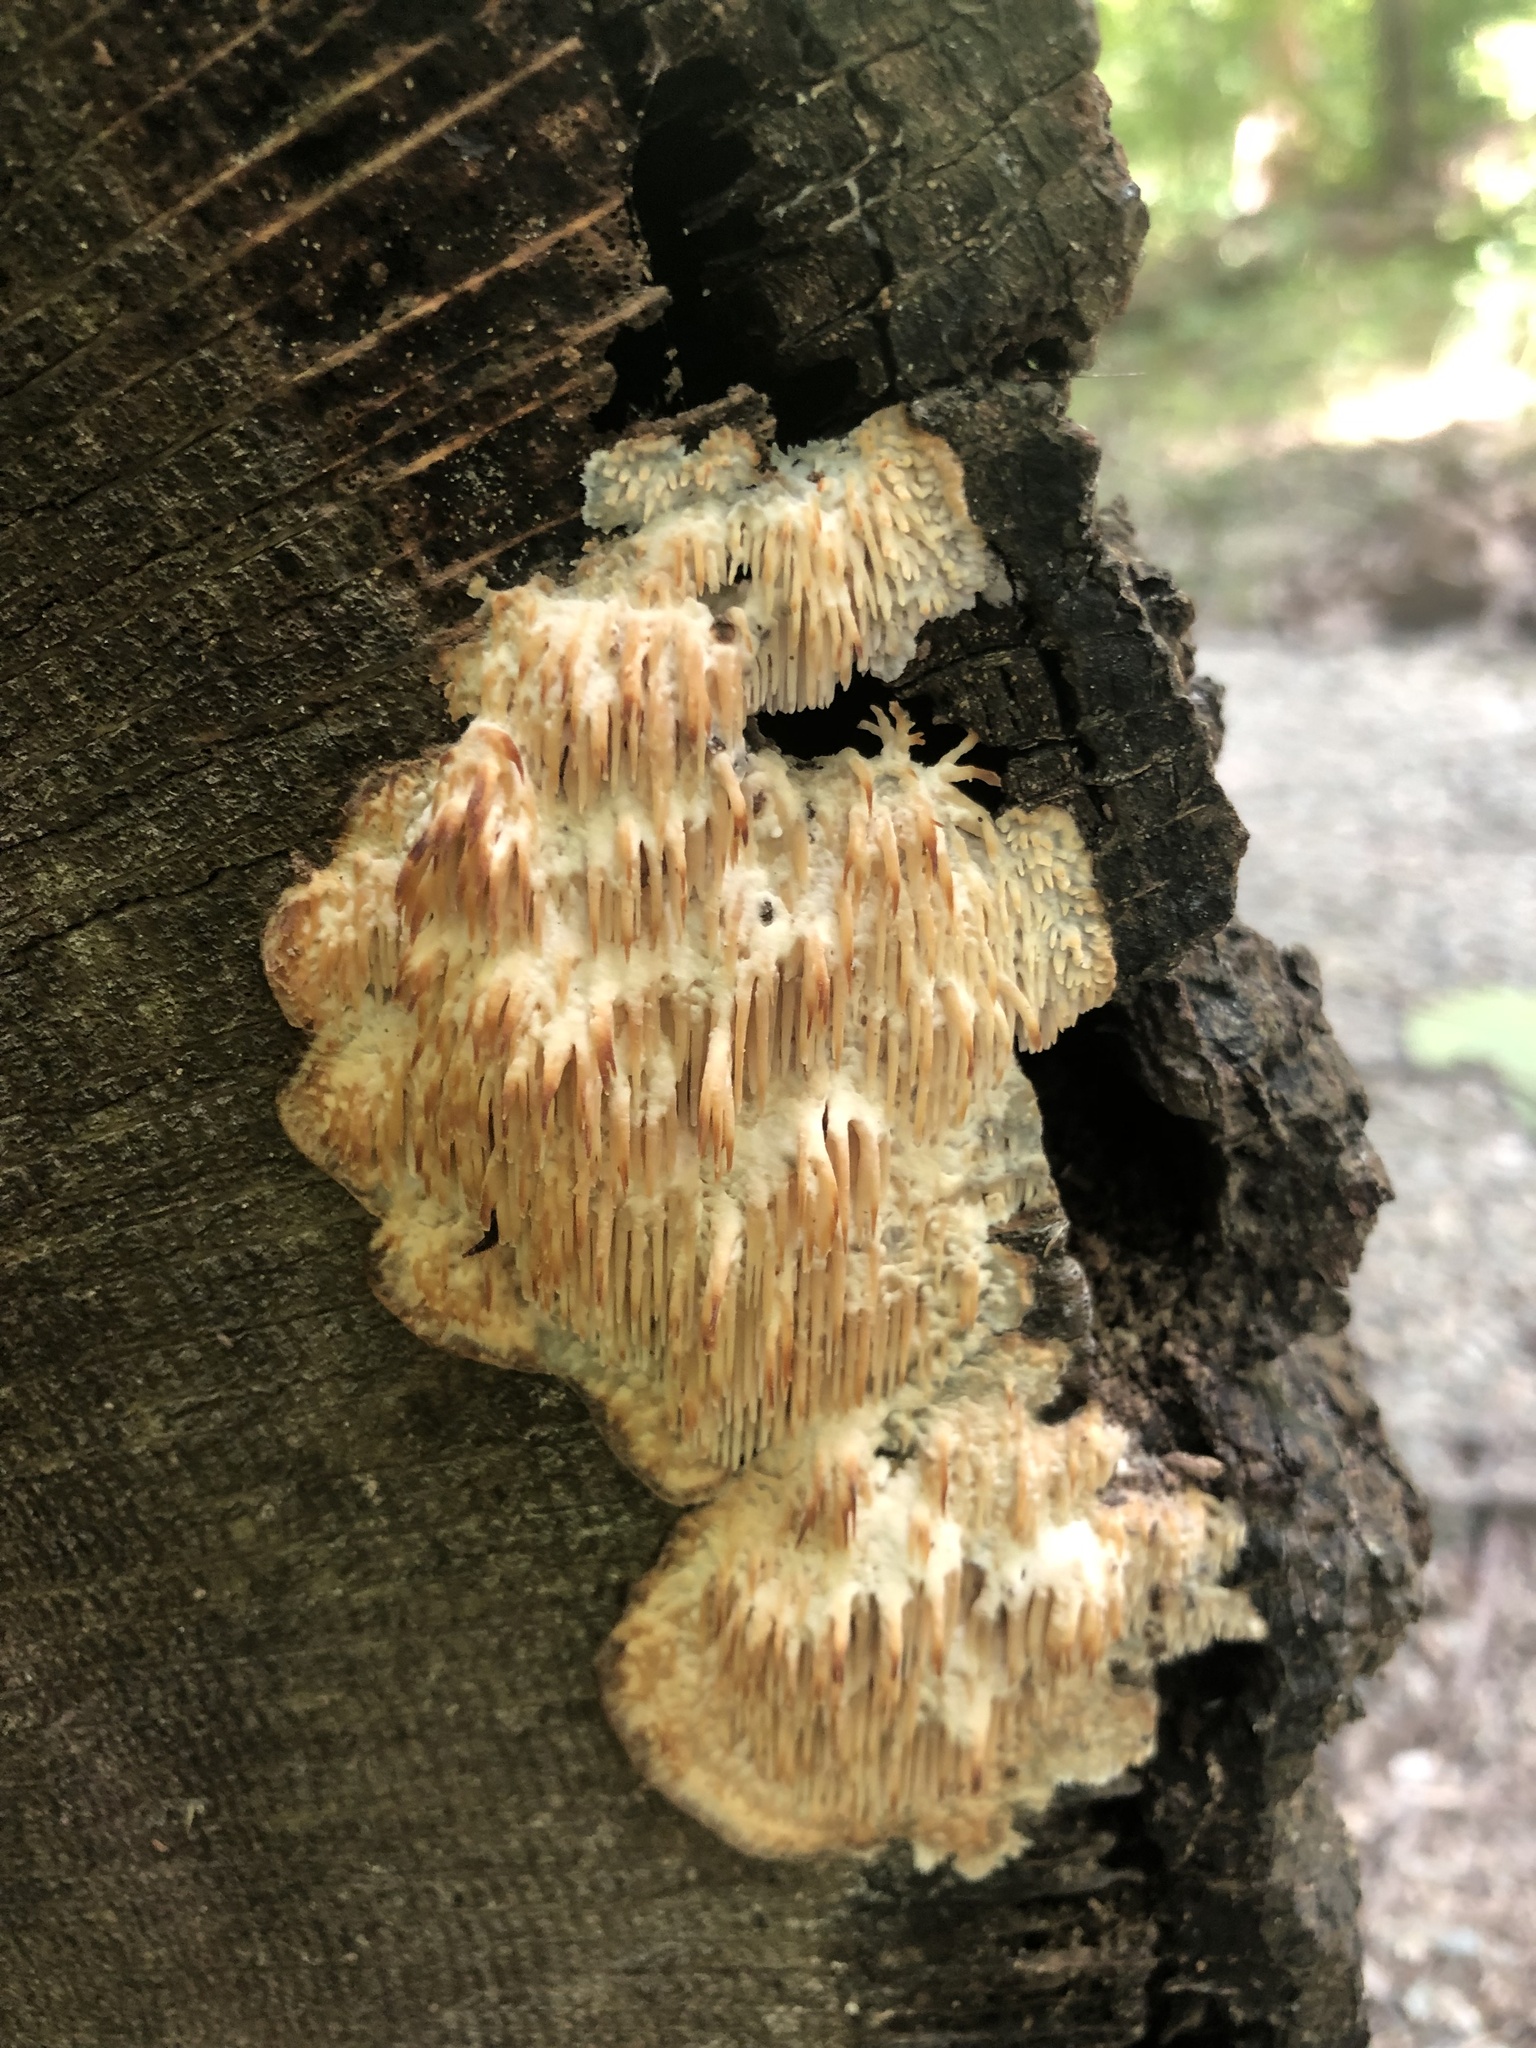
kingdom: Fungi
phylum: Basidiomycota
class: Agaricomycetes
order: Agaricales
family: Radulomycetaceae
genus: Radulomyces
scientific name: Radulomyces copelandii
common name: Asian beauty
